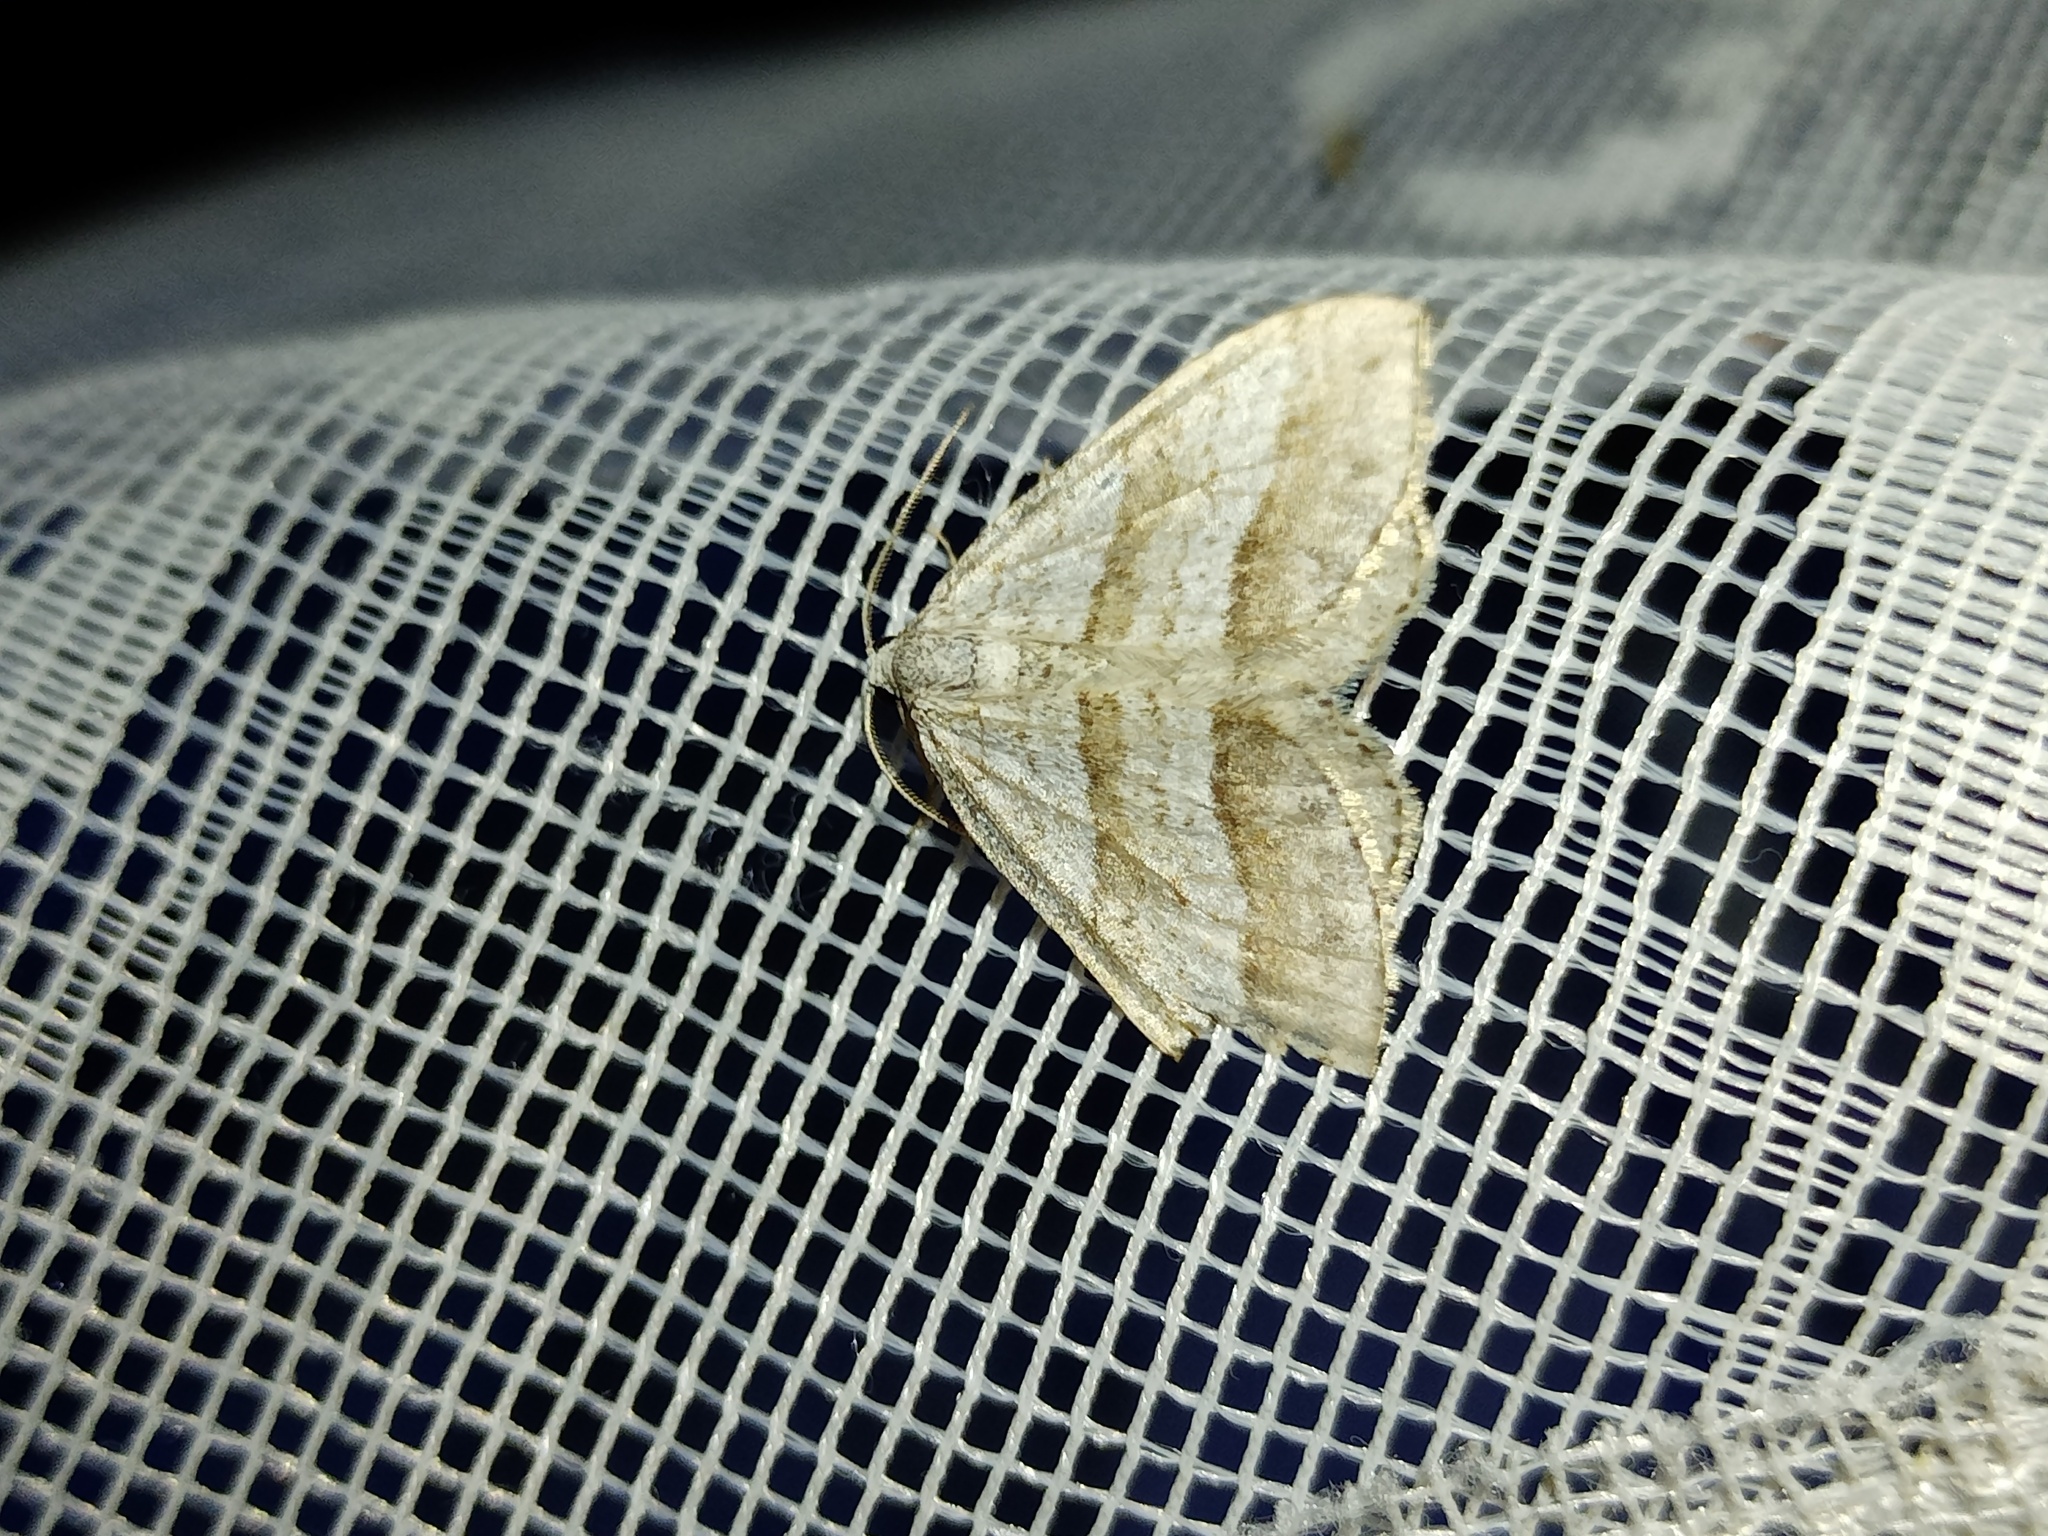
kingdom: Animalia
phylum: Arthropoda
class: Insecta
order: Lepidoptera
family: Geometridae
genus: Perizoma
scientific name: Perizoma parallelolineata
